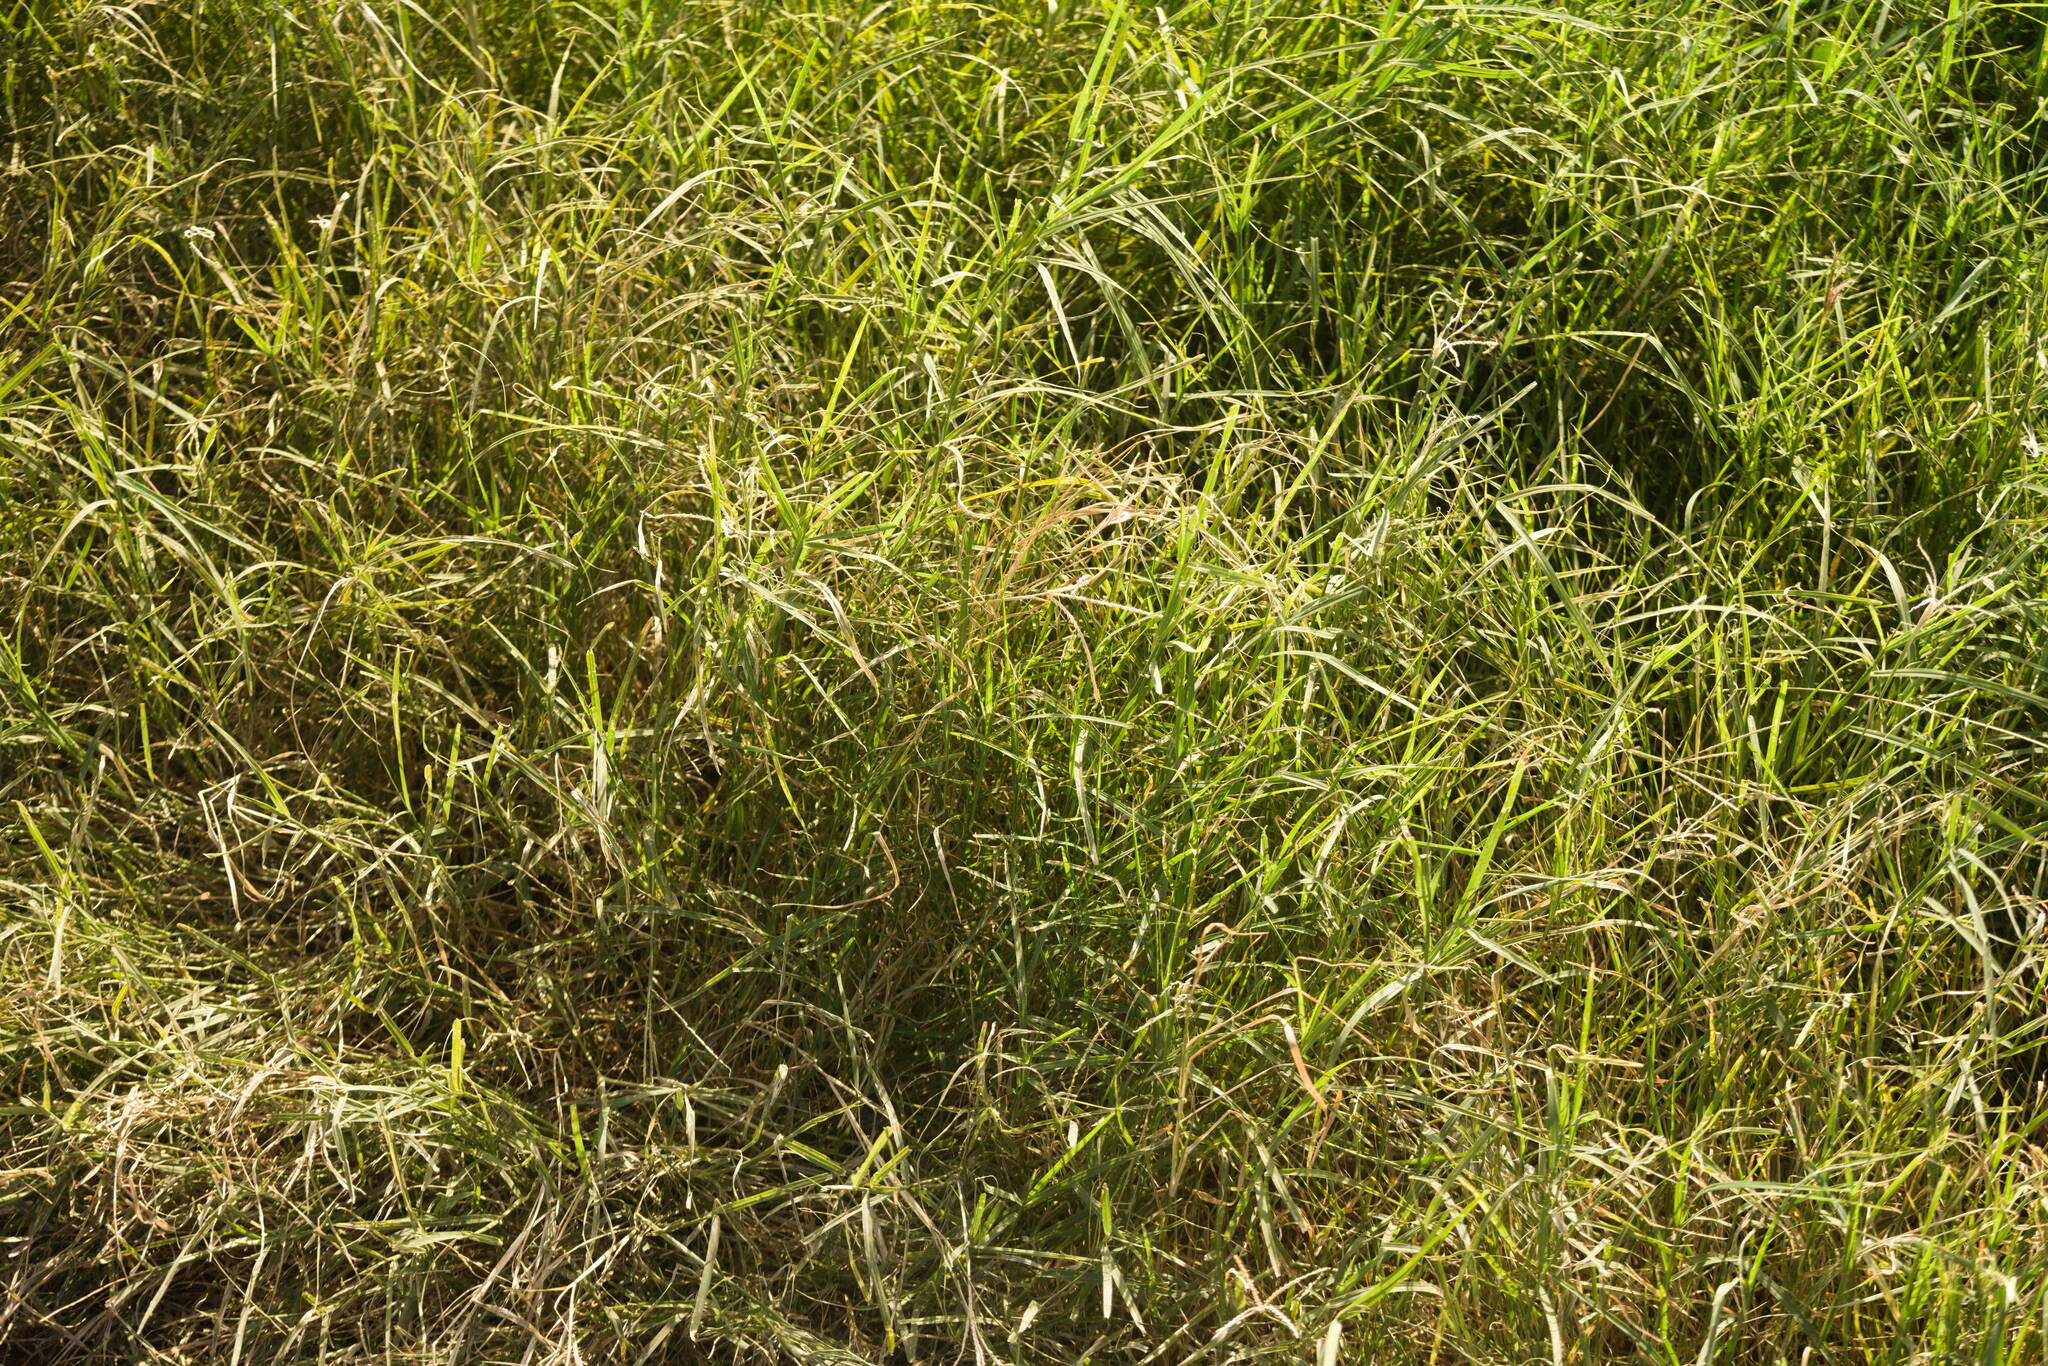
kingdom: Plantae
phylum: Tracheophyta
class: Liliopsida
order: Poales
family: Poaceae
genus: Cynodon
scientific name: Cynodon dactylon
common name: Bermuda grass
